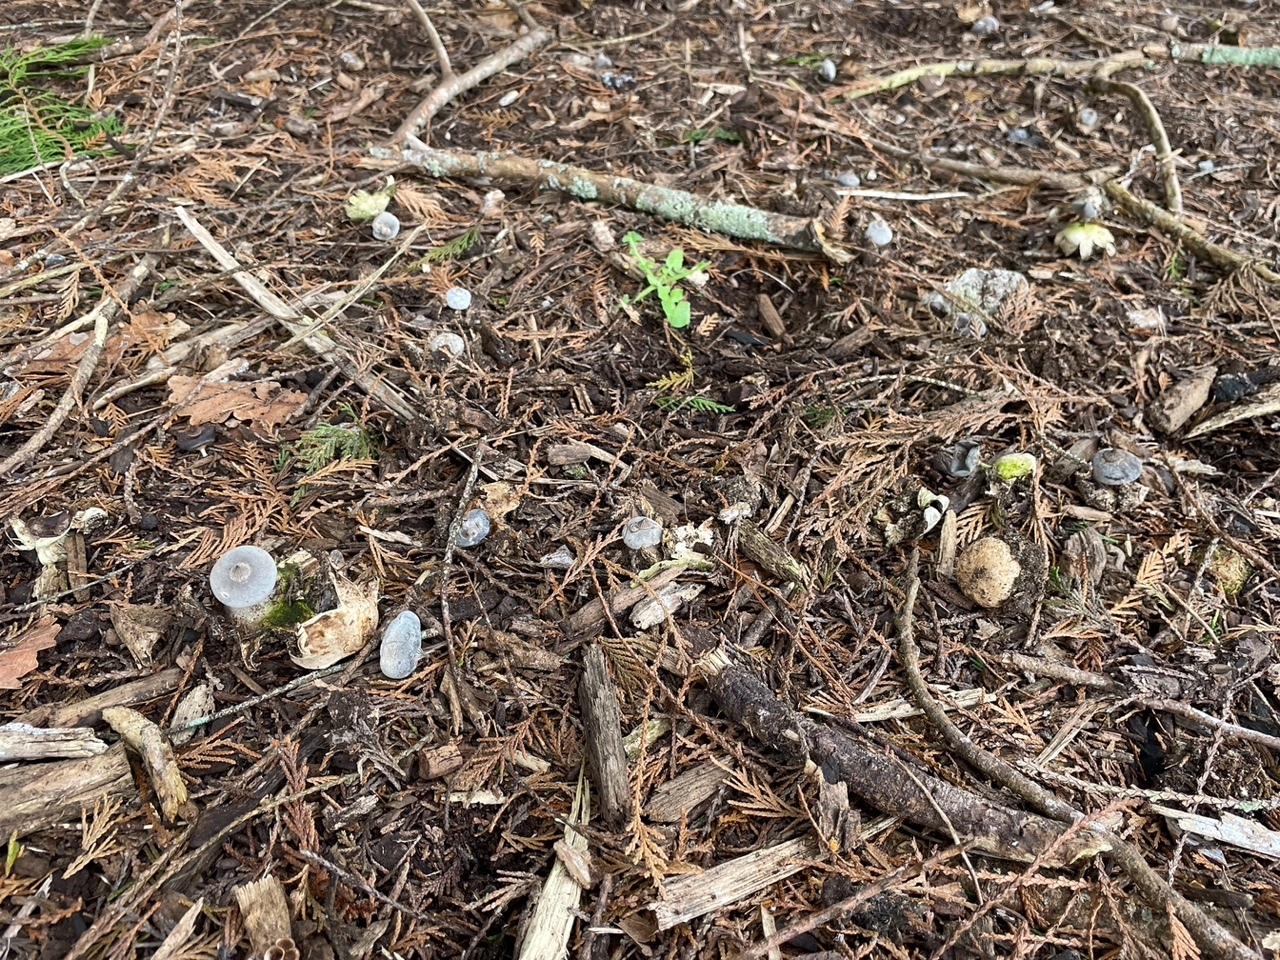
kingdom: Fungi
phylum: Basidiomycota
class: Agaricomycetes
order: Geastrales
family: Geastraceae
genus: Geastrum
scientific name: Geastrum pectinatum
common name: Beaked earthstar
